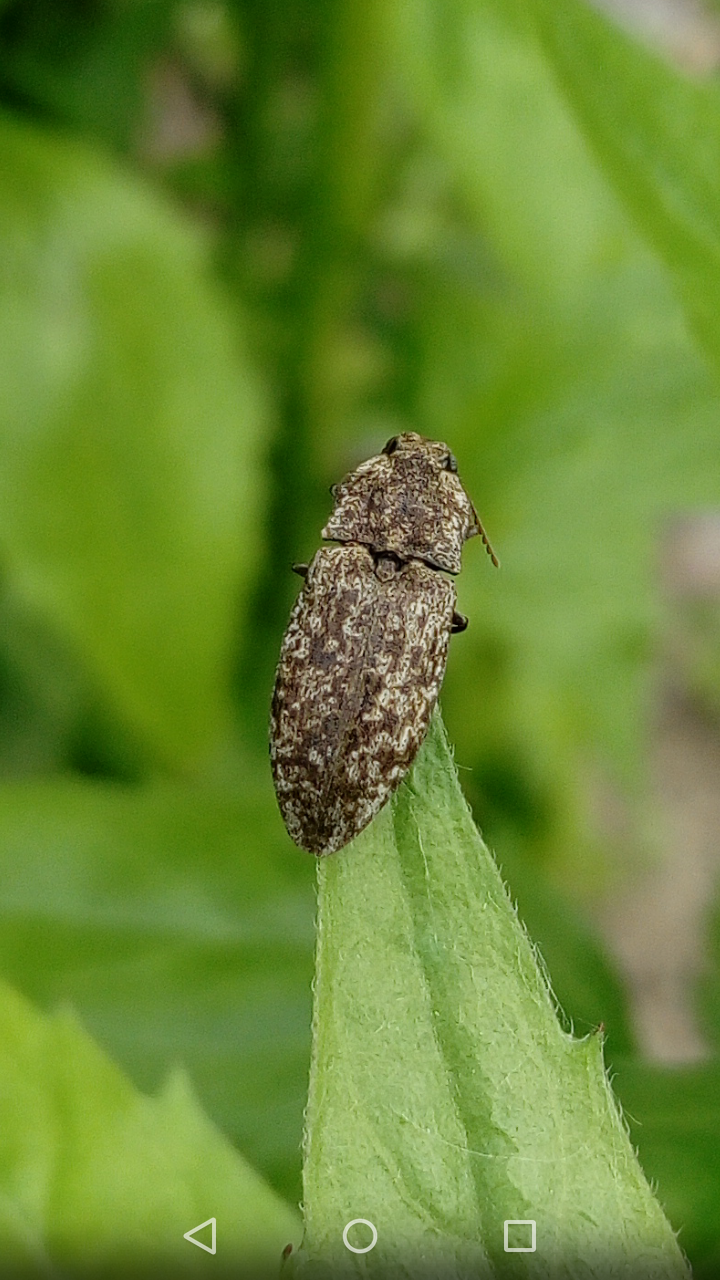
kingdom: Animalia
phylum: Arthropoda
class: Insecta
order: Coleoptera
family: Elateridae
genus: Agrypnus
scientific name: Agrypnus murinus
